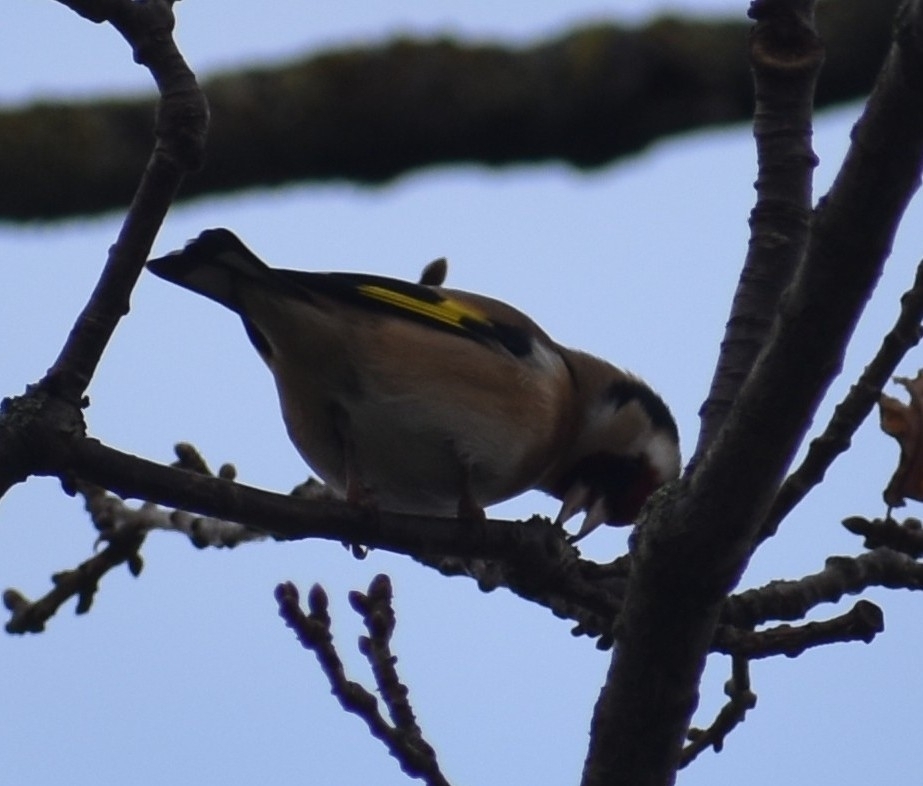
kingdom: Animalia
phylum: Chordata
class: Aves
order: Passeriformes
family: Fringillidae
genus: Carduelis
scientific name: Carduelis carduelis
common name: European goldfinch
